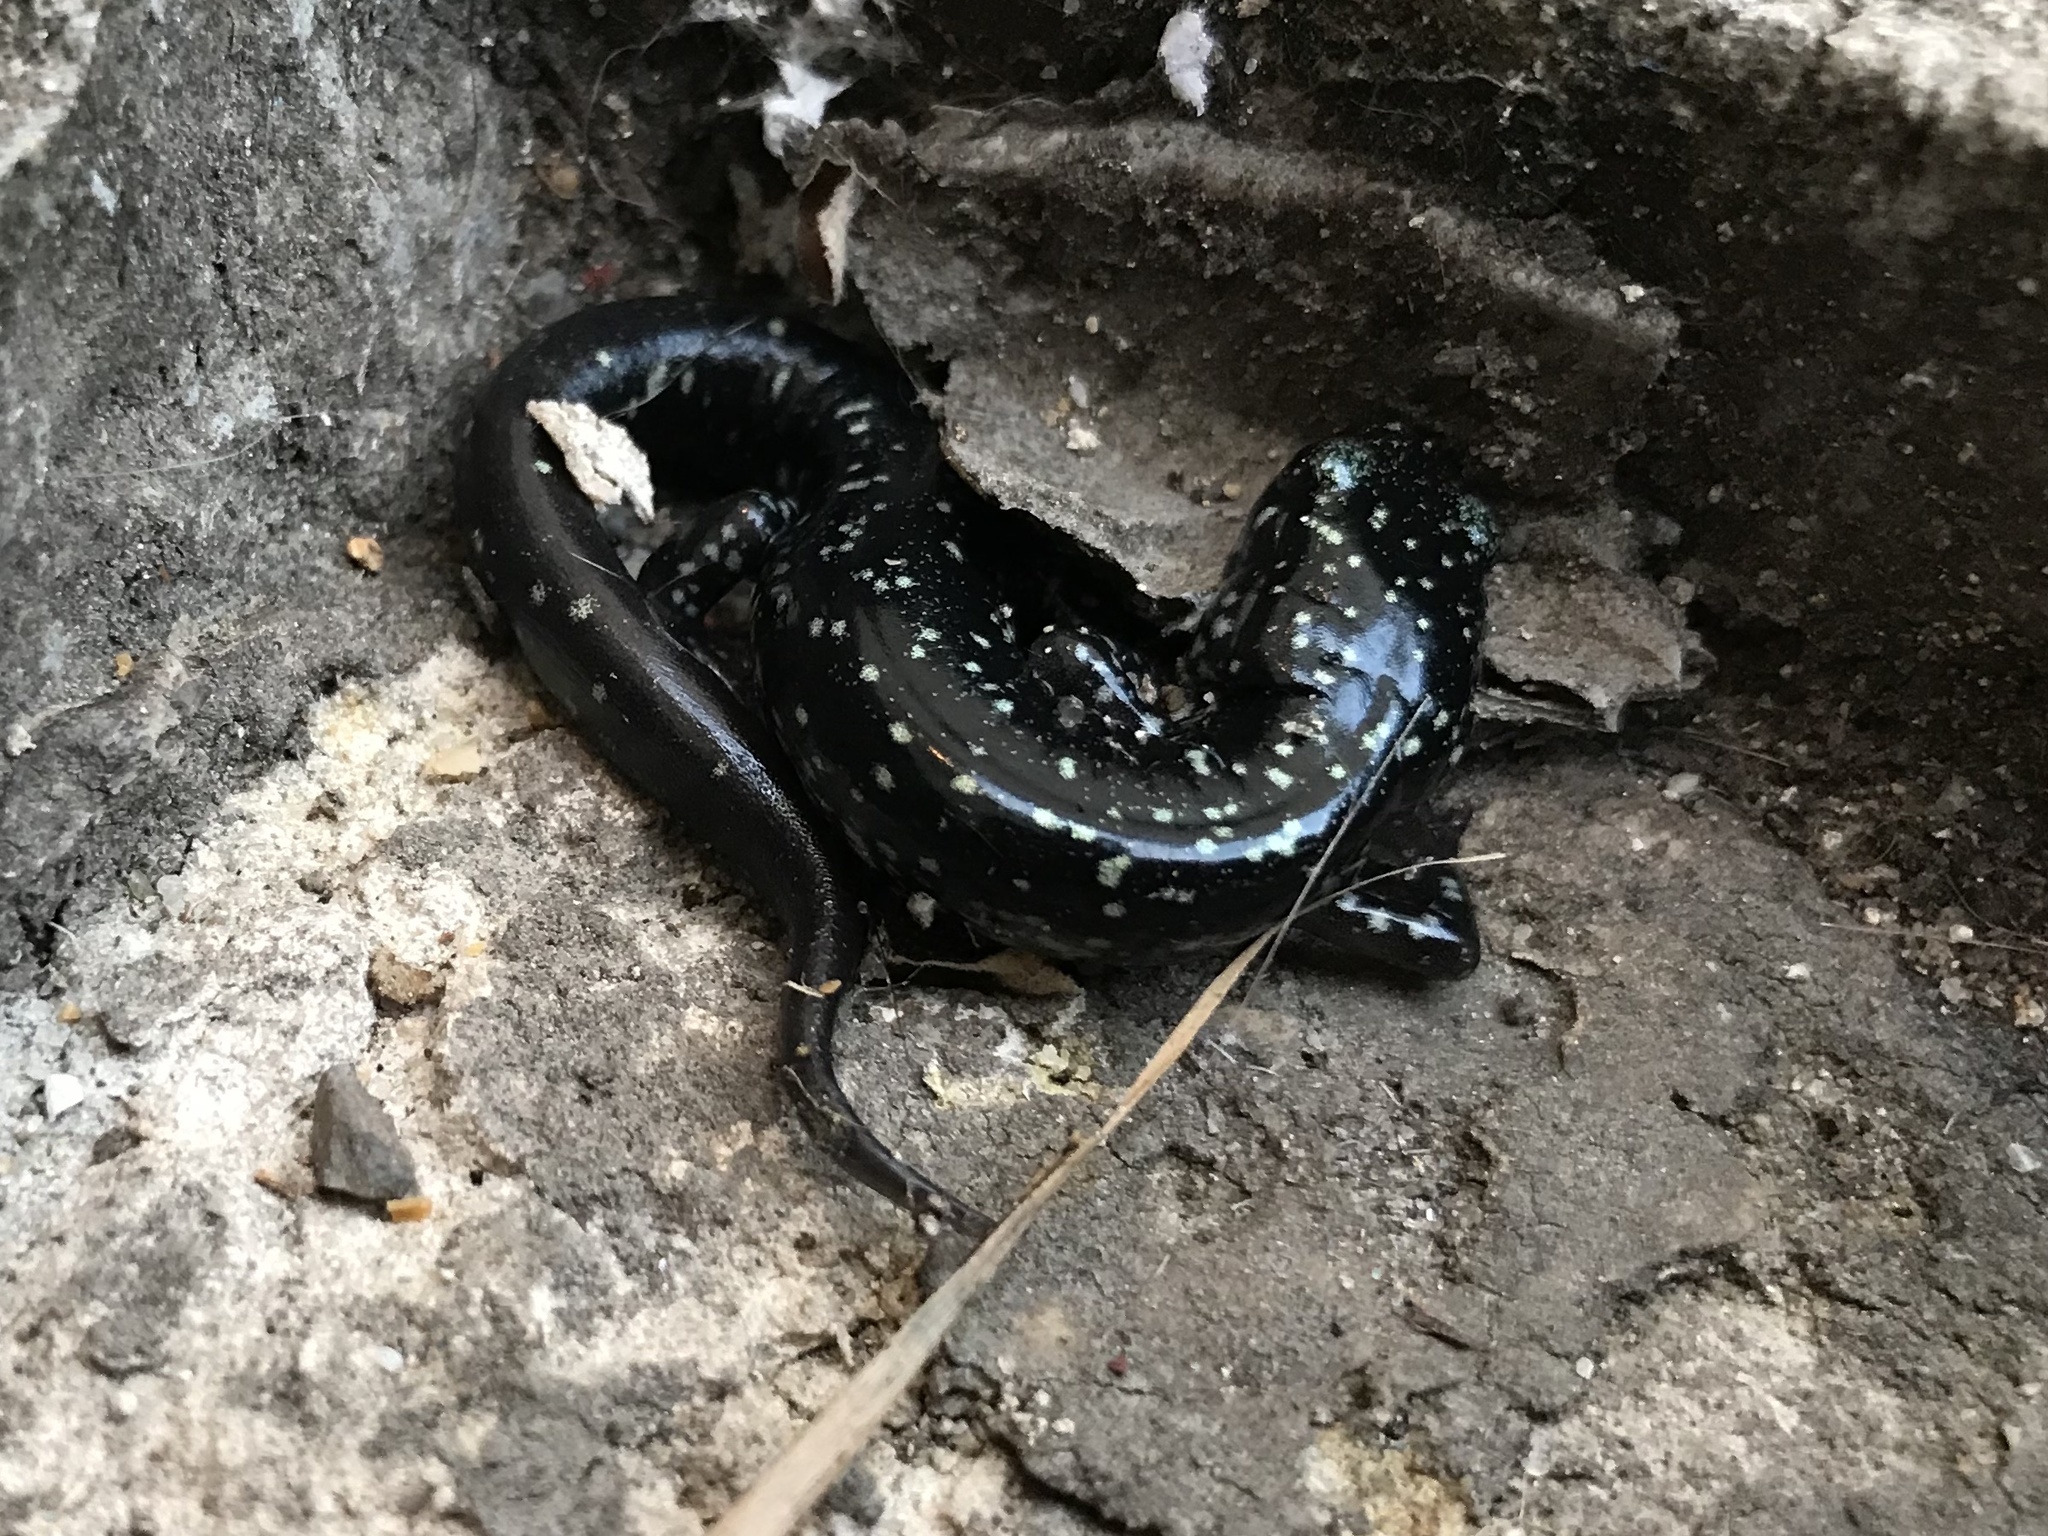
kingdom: Animalia
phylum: Chordata
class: Amphibia
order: Caudata
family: Plethodontidae
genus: Plethodon
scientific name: Plethodon glutinosus
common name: Northern slimy salamander
